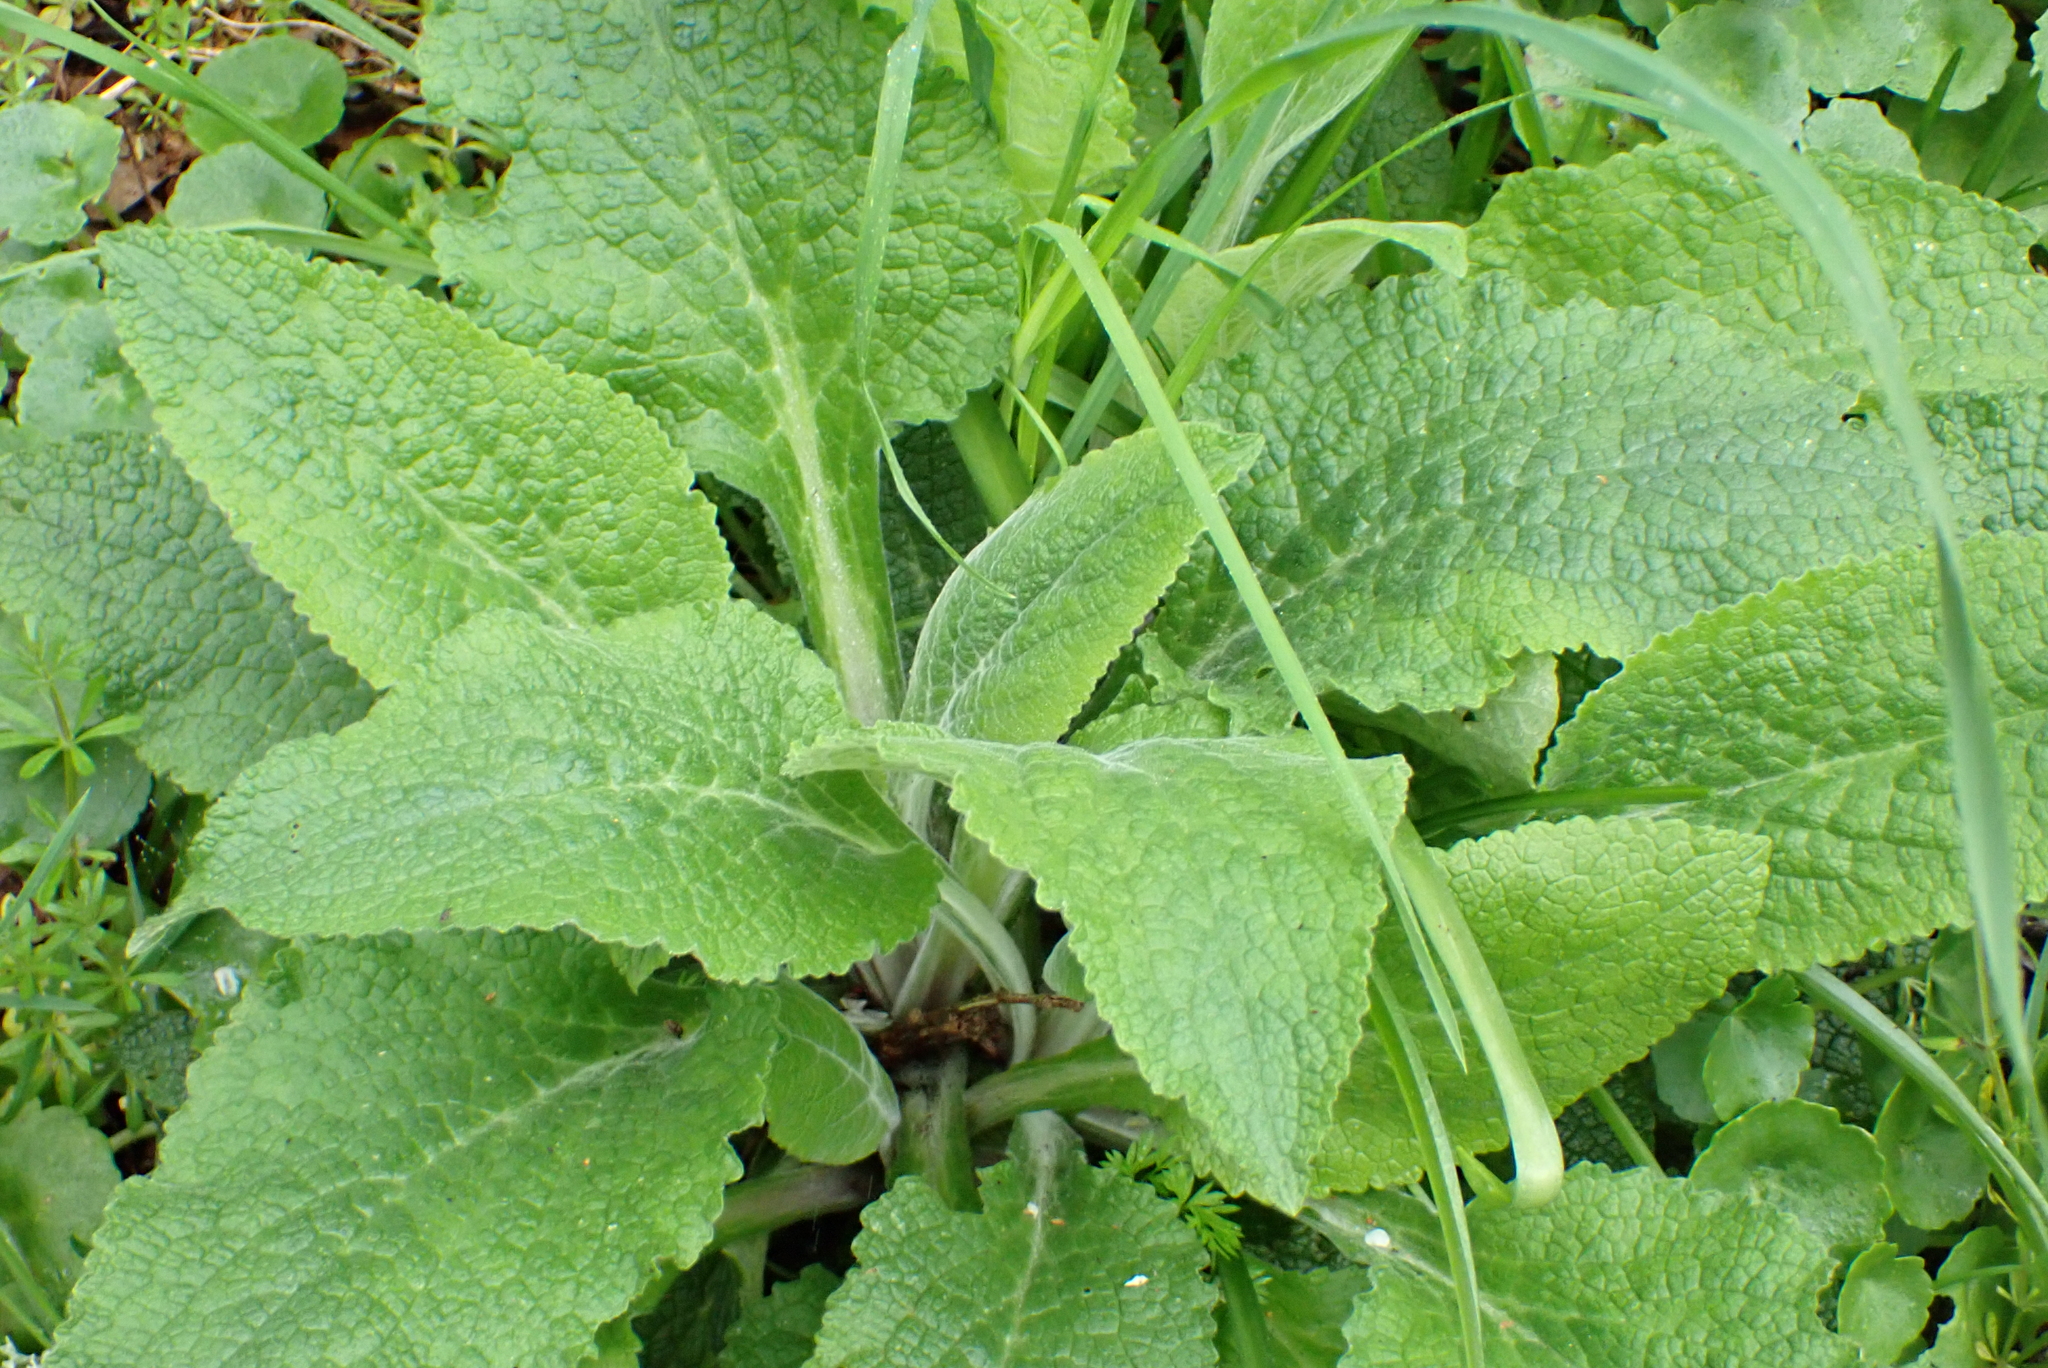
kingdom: Plantae
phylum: Tracheophyta
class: Magnoliopsida
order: Lamiales
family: Plantaginaceae
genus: Digitalis
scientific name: Digitalis purpurea
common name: Foxglove
